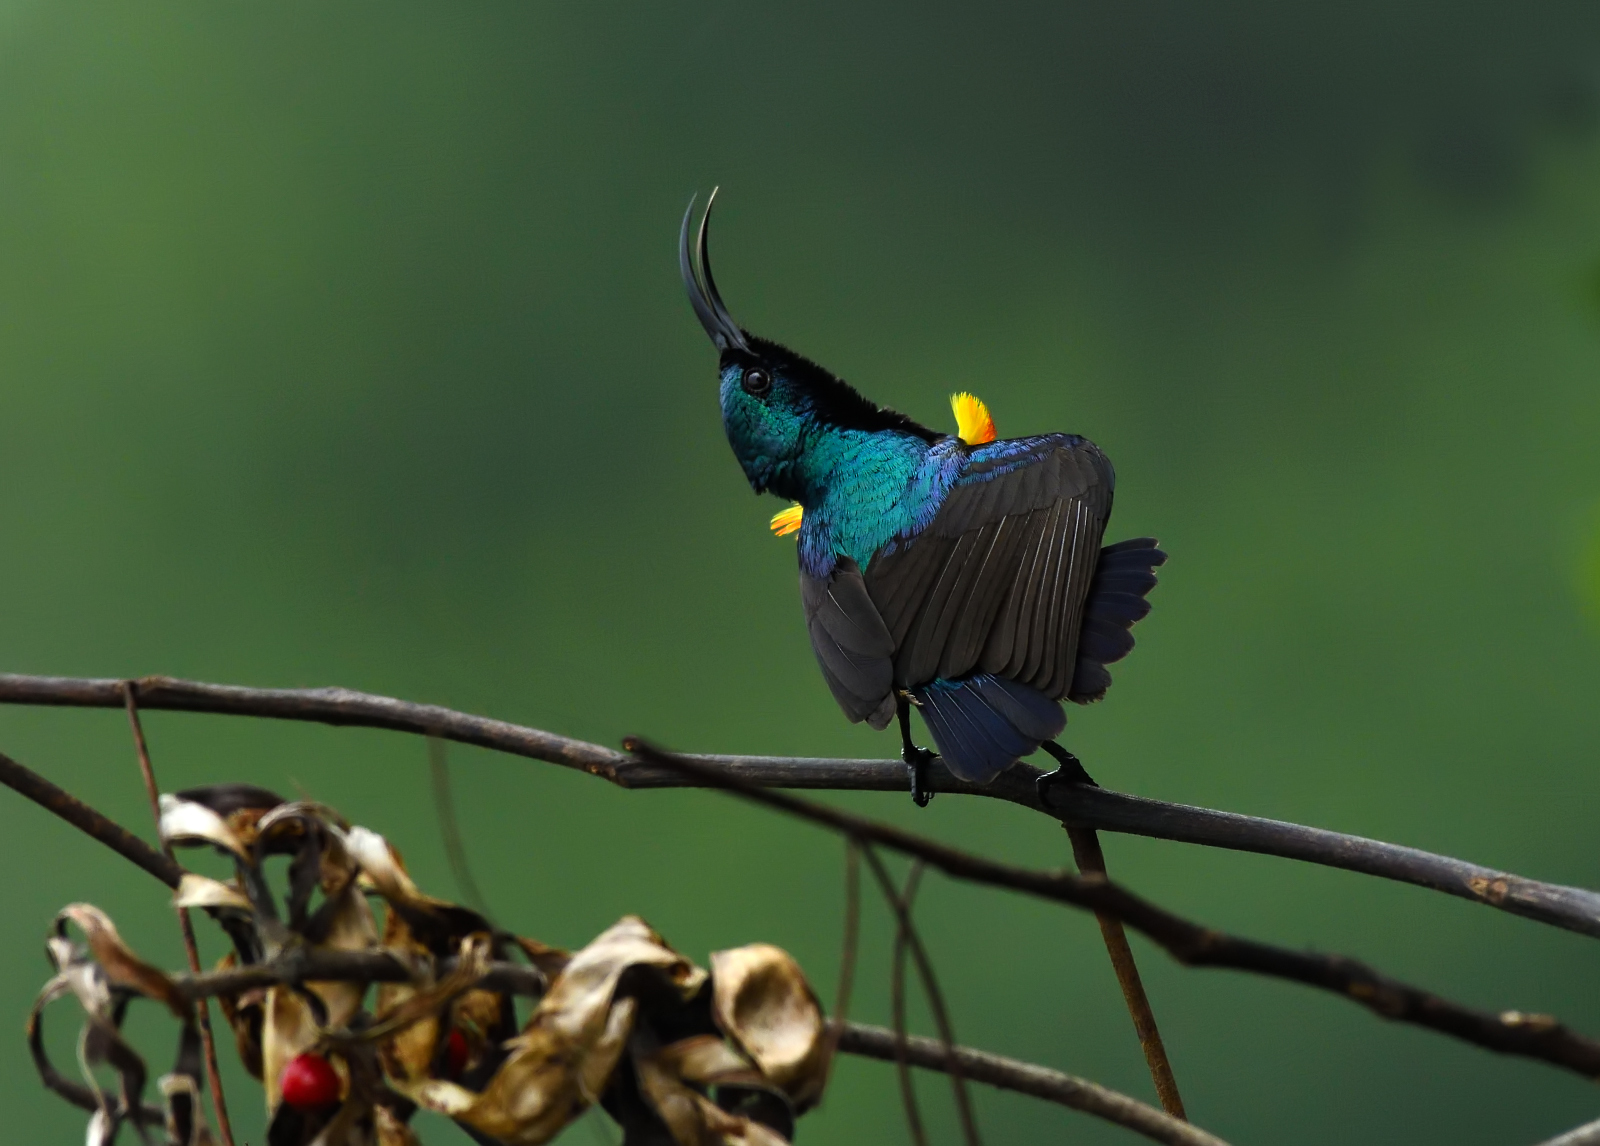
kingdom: Animalia
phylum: Chordata
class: Aves
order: Passeriformes
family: Nectariniidae
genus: Cinnyris
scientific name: Cinnyris lotenius
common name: Loten's sunbird
